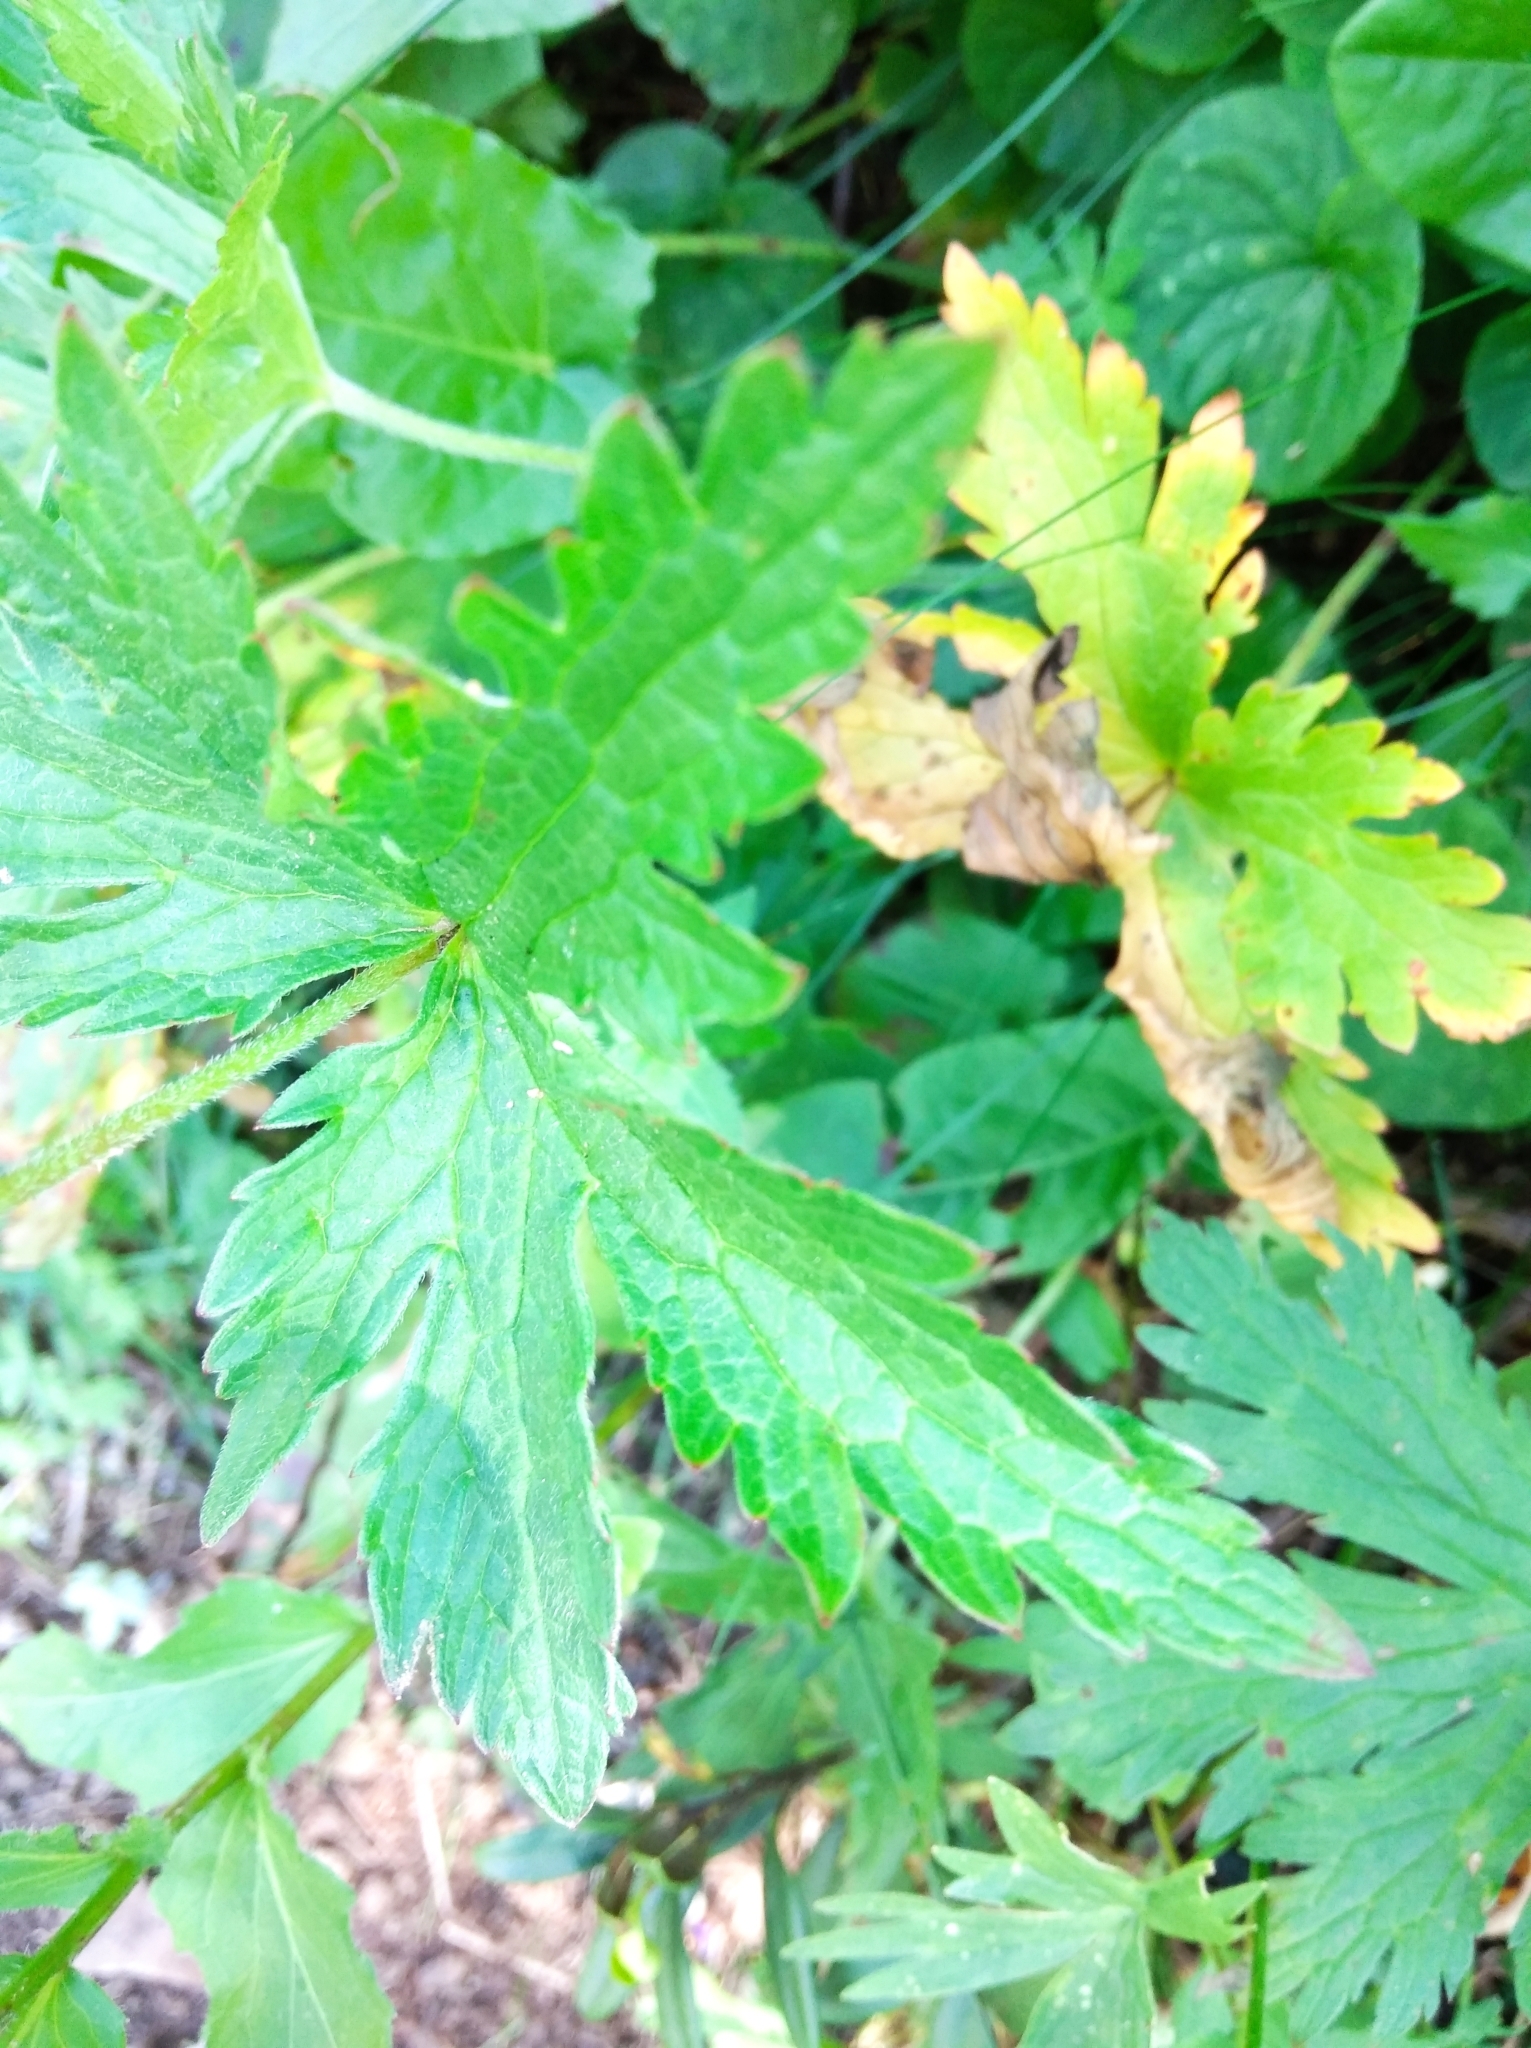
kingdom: Plantae
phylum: Tracheophyta
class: Magnoliopsida
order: Geraniales
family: Geraniaceae
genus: Geranium
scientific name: Geranium sylvaticum
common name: Wood crane's-bill
